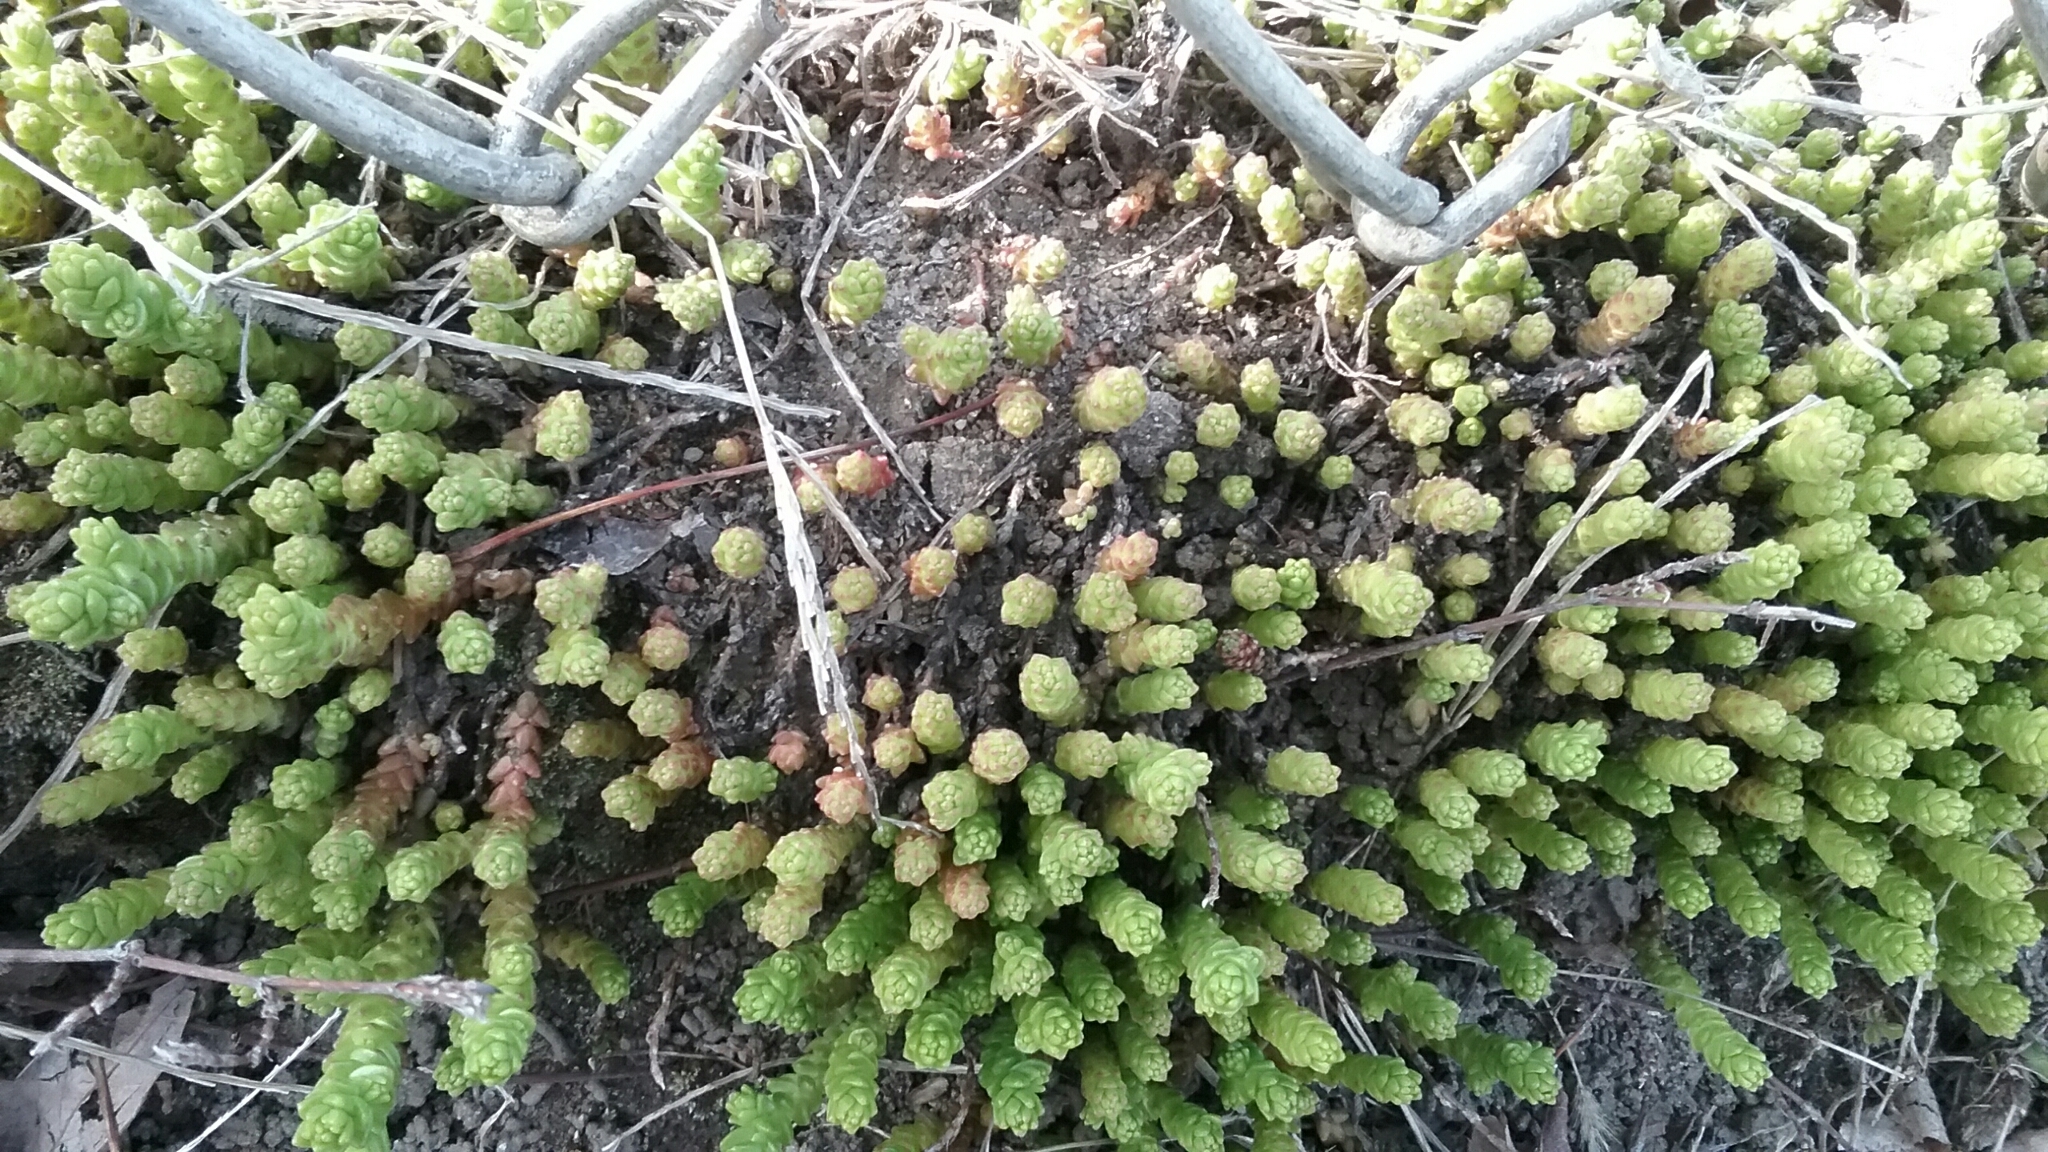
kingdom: Plantae
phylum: Tracheophyta
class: Magnoliopsida
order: Saxifragales
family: Crassulaceae
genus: Sedum
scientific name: Sedum acre
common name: Biting stonecrop
